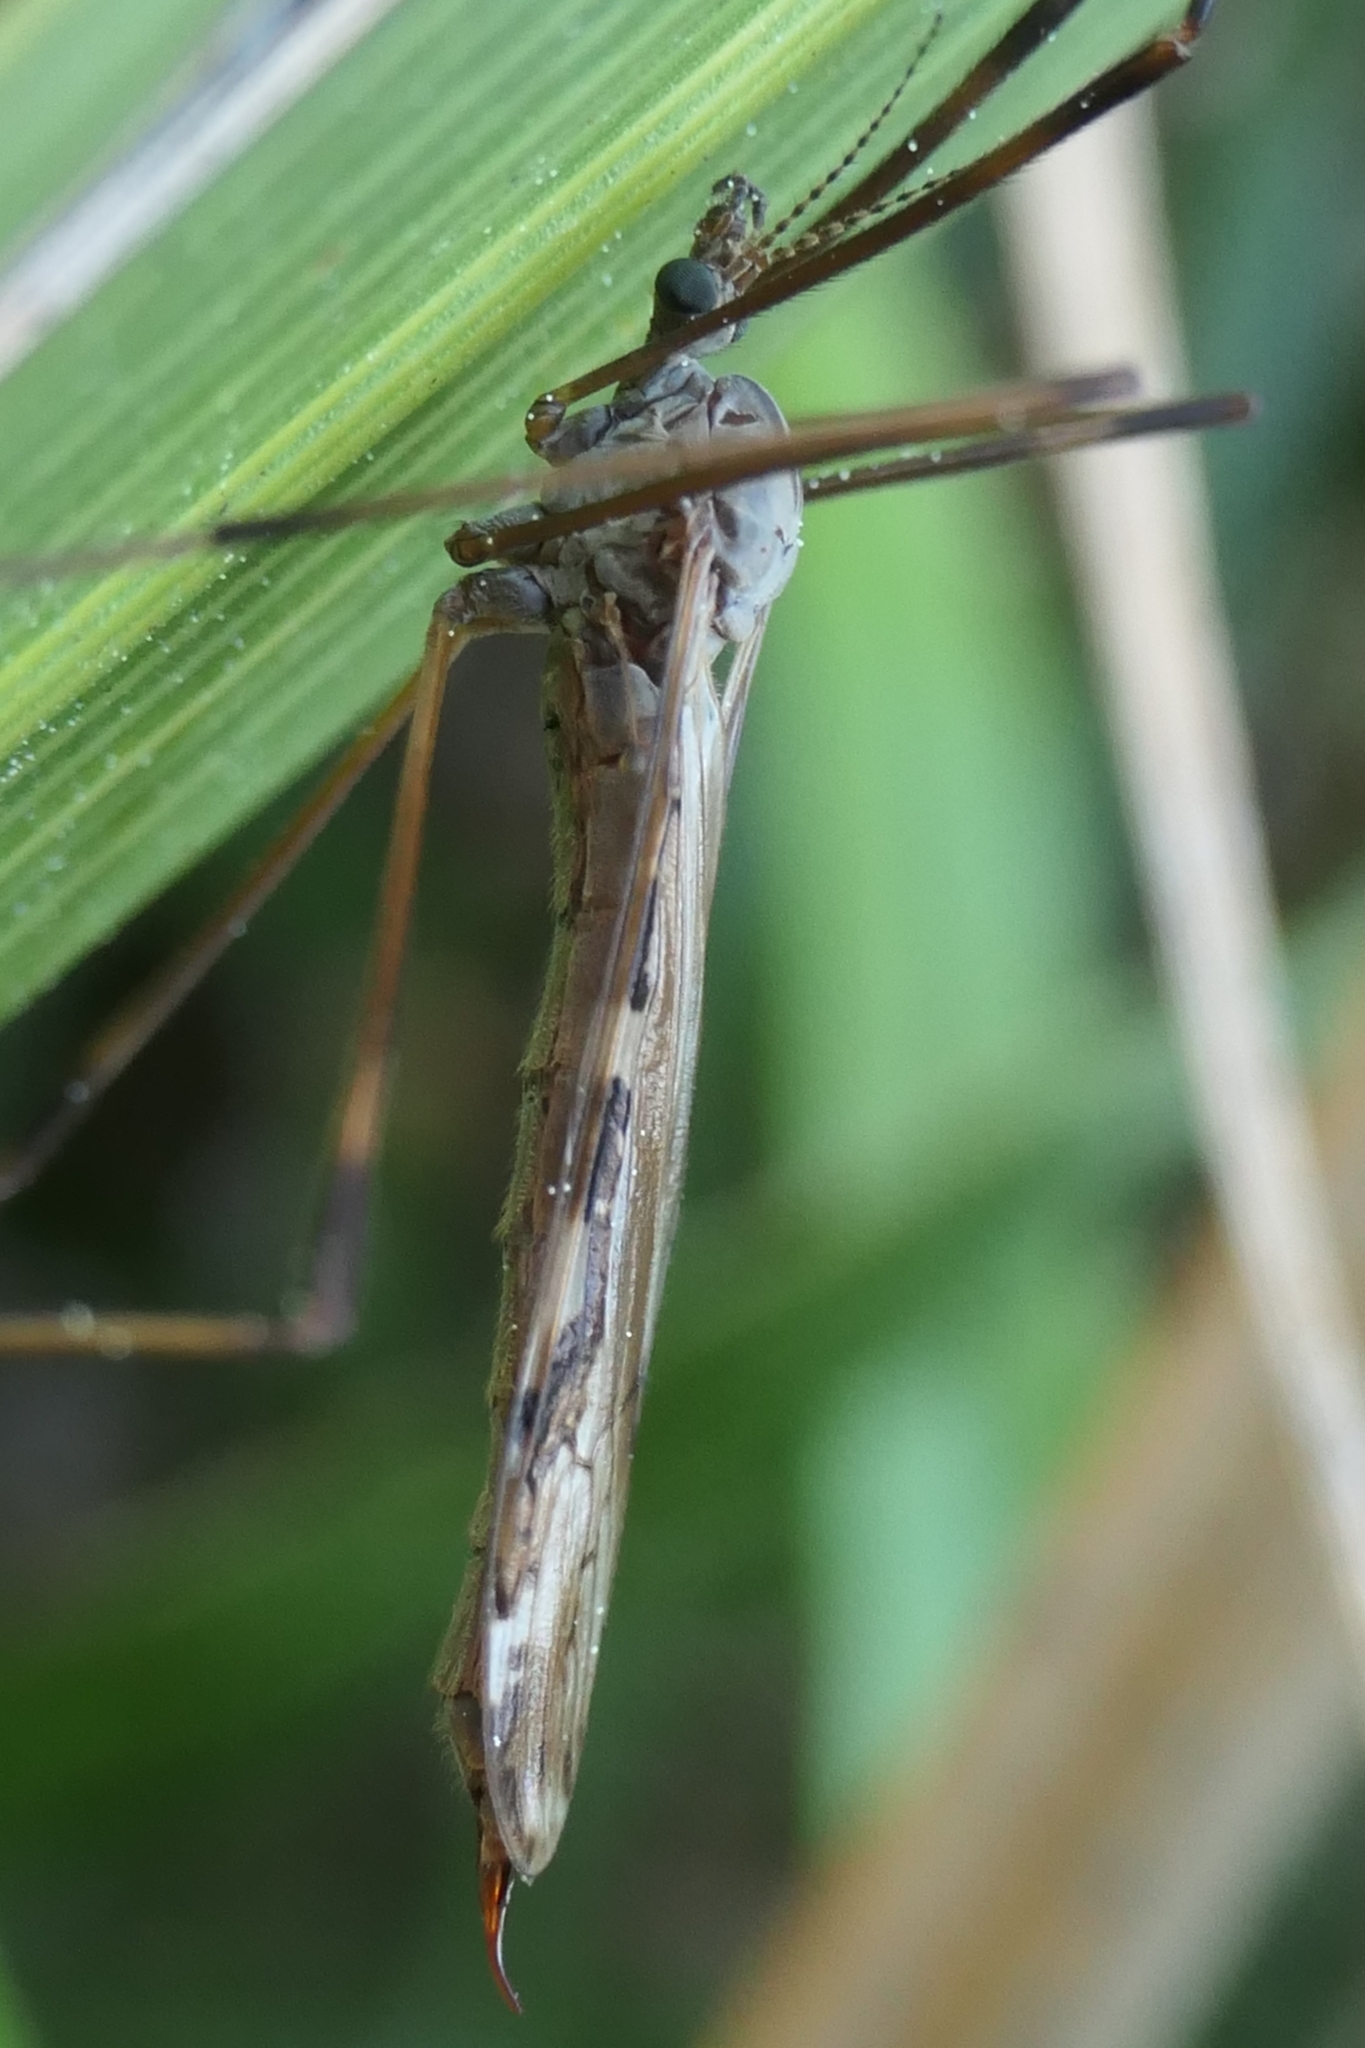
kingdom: Animalia
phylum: Arthropoda
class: Insecta
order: Diptera
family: Limoniidae
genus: Paralimnophila
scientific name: Paralimnophila skusei
